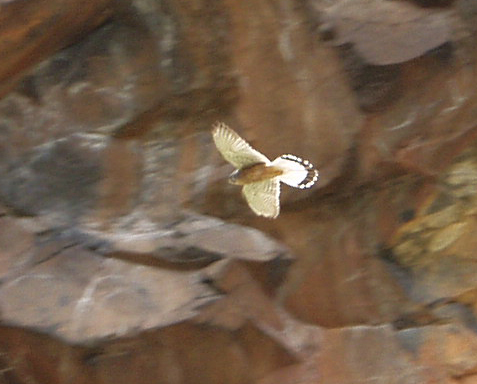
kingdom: Animalia
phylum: Chordata
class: Aves
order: Falconiformes
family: Falconidae
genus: Falco
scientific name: Falco tinnunculus
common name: Common kestrel
